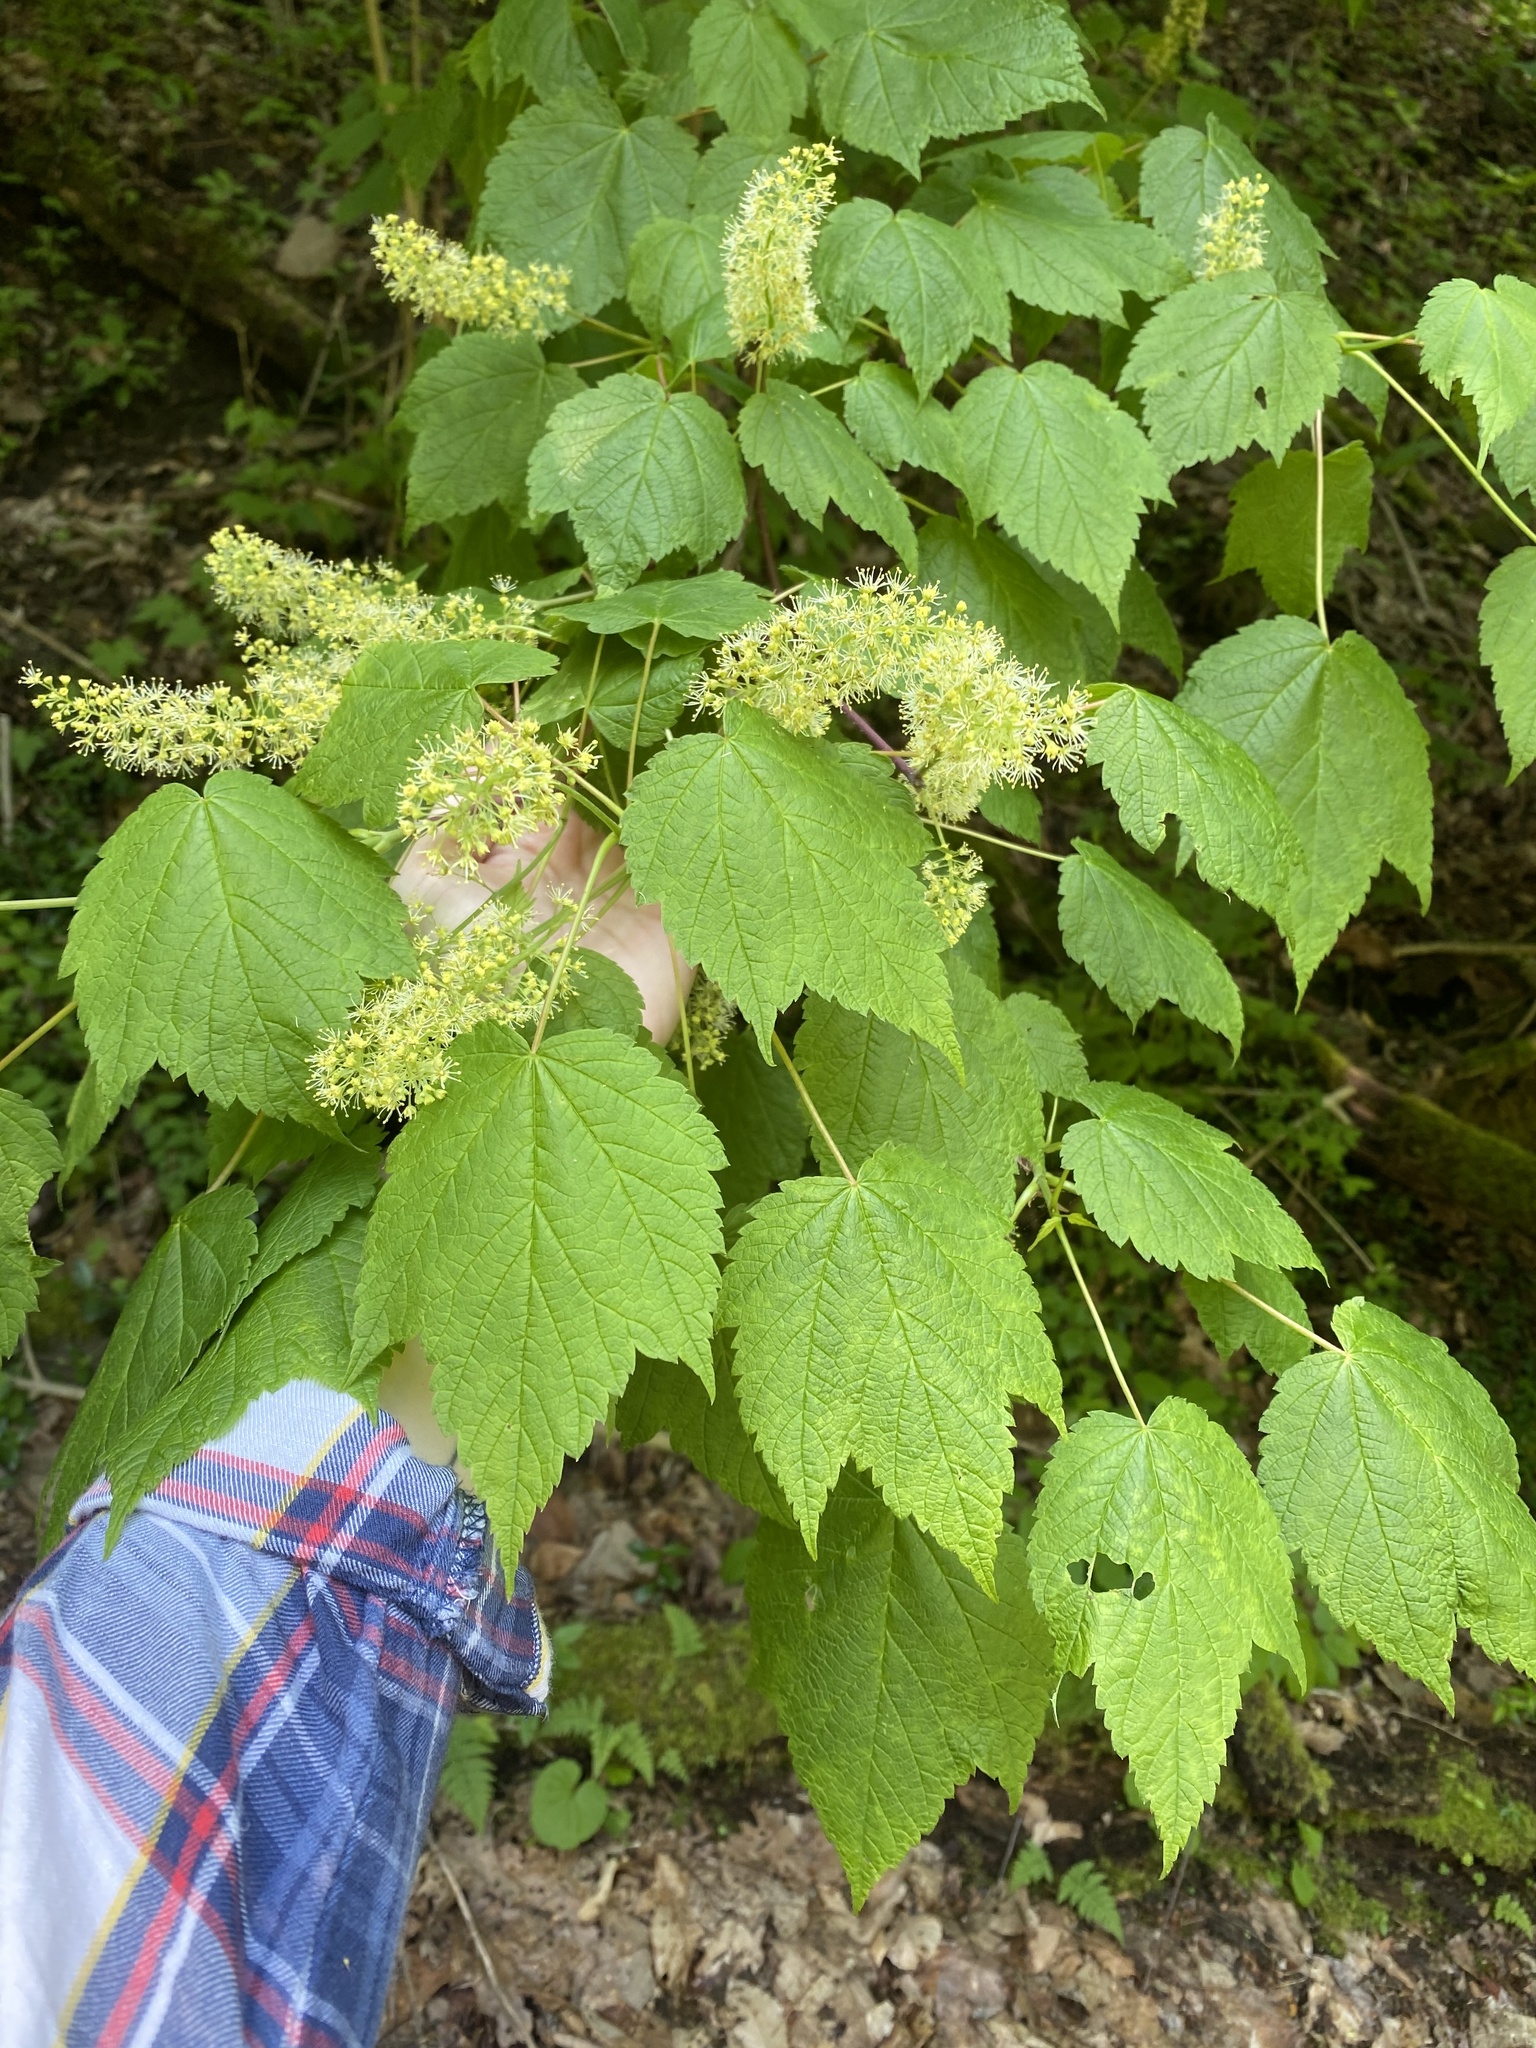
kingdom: Plantae
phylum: Tracheophyta
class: Magnoliopsida
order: Sapindales
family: Sapindaceae
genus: Acer
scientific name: Acer spicatum
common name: Mountain maple
